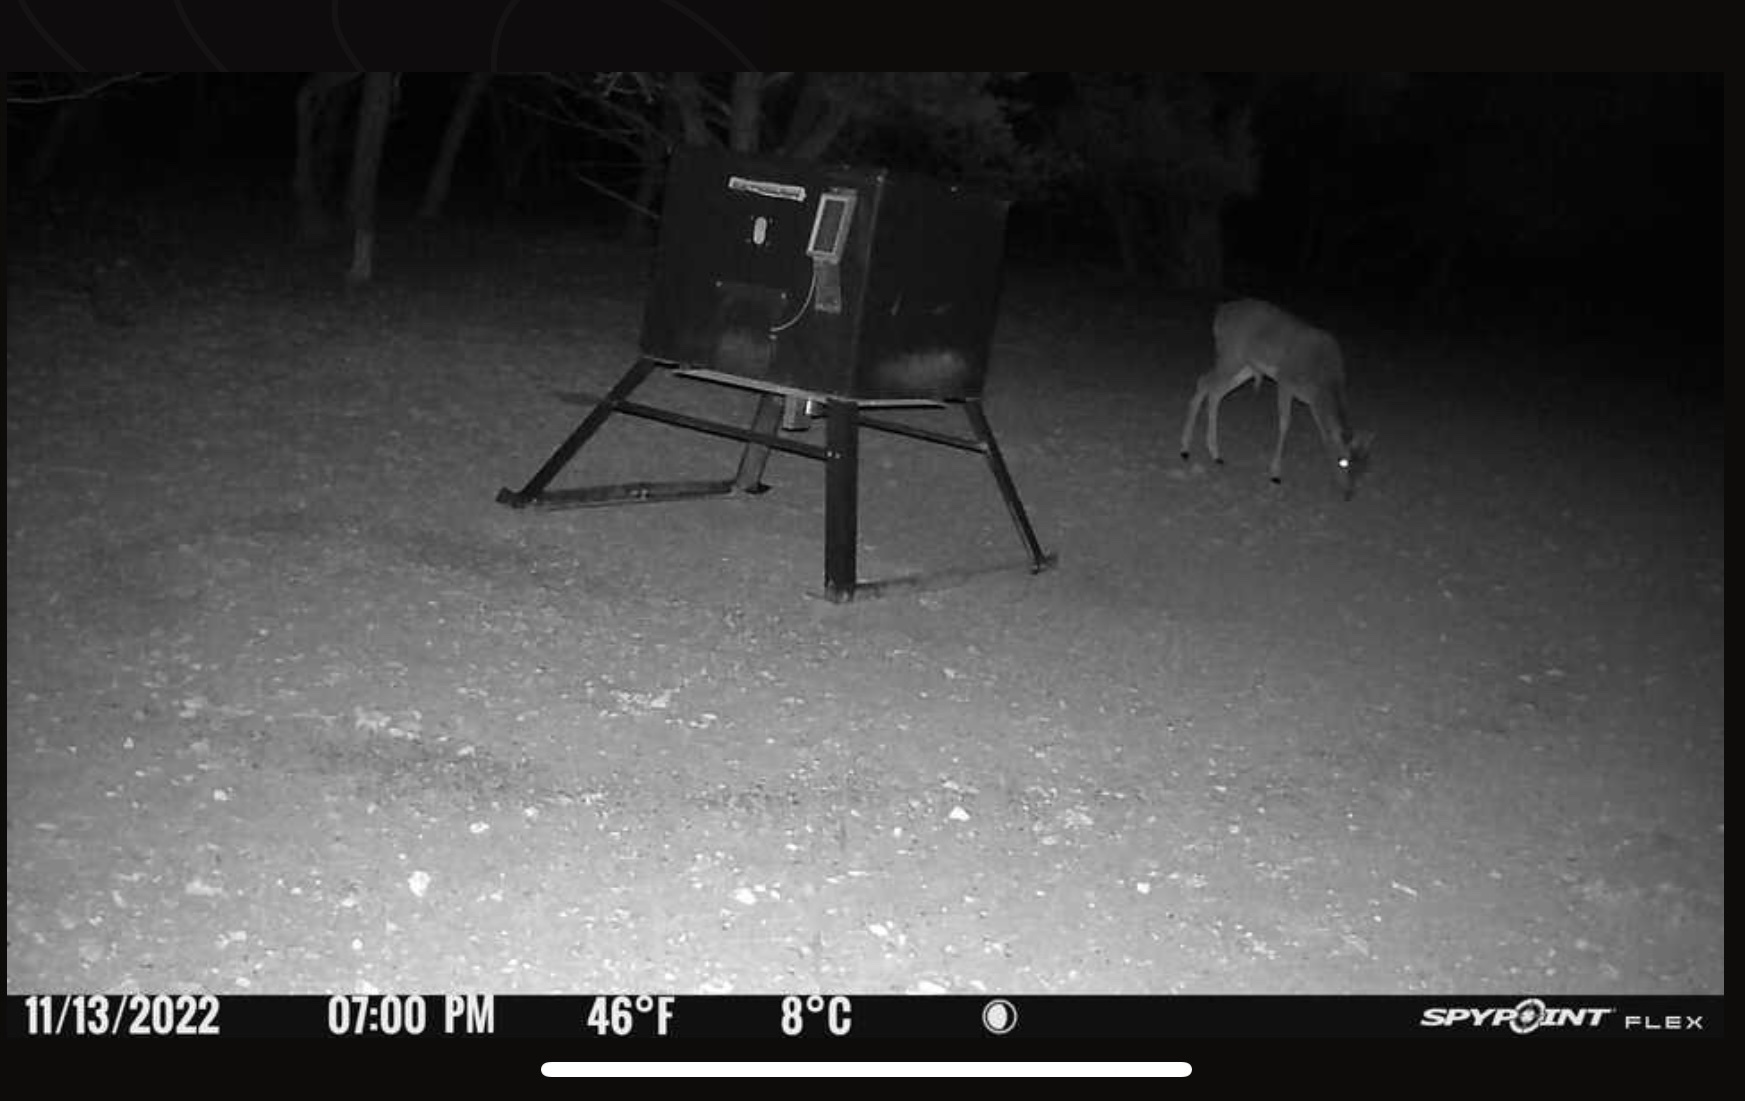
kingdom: Animalia
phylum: Chordata
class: Mammalia
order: Artiodactyla
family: Cervidae
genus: Dama
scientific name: Dama dama
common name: Fallow deer
